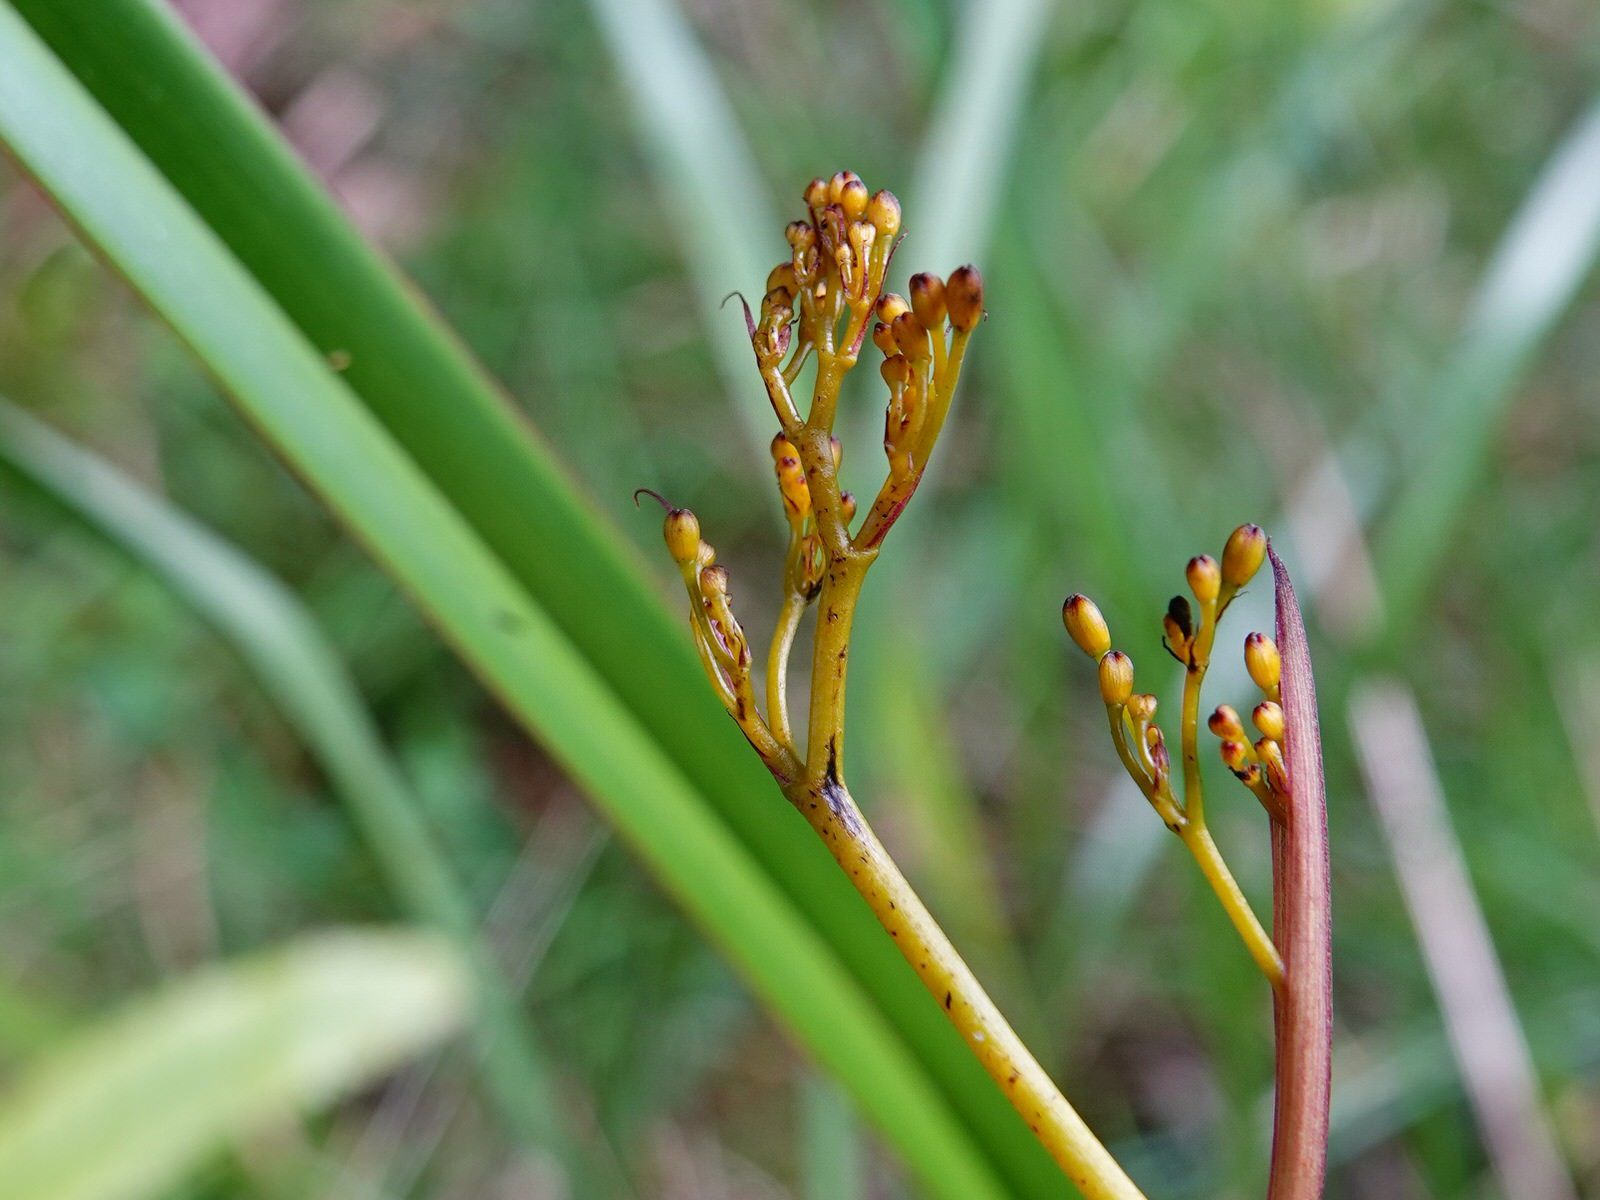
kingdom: Plantae
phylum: Tracheophyta
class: Liliopsida
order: Asparagales
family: Asphodelaceae
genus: Dianella
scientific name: Dianella nigra
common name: New zealand-blueberry
